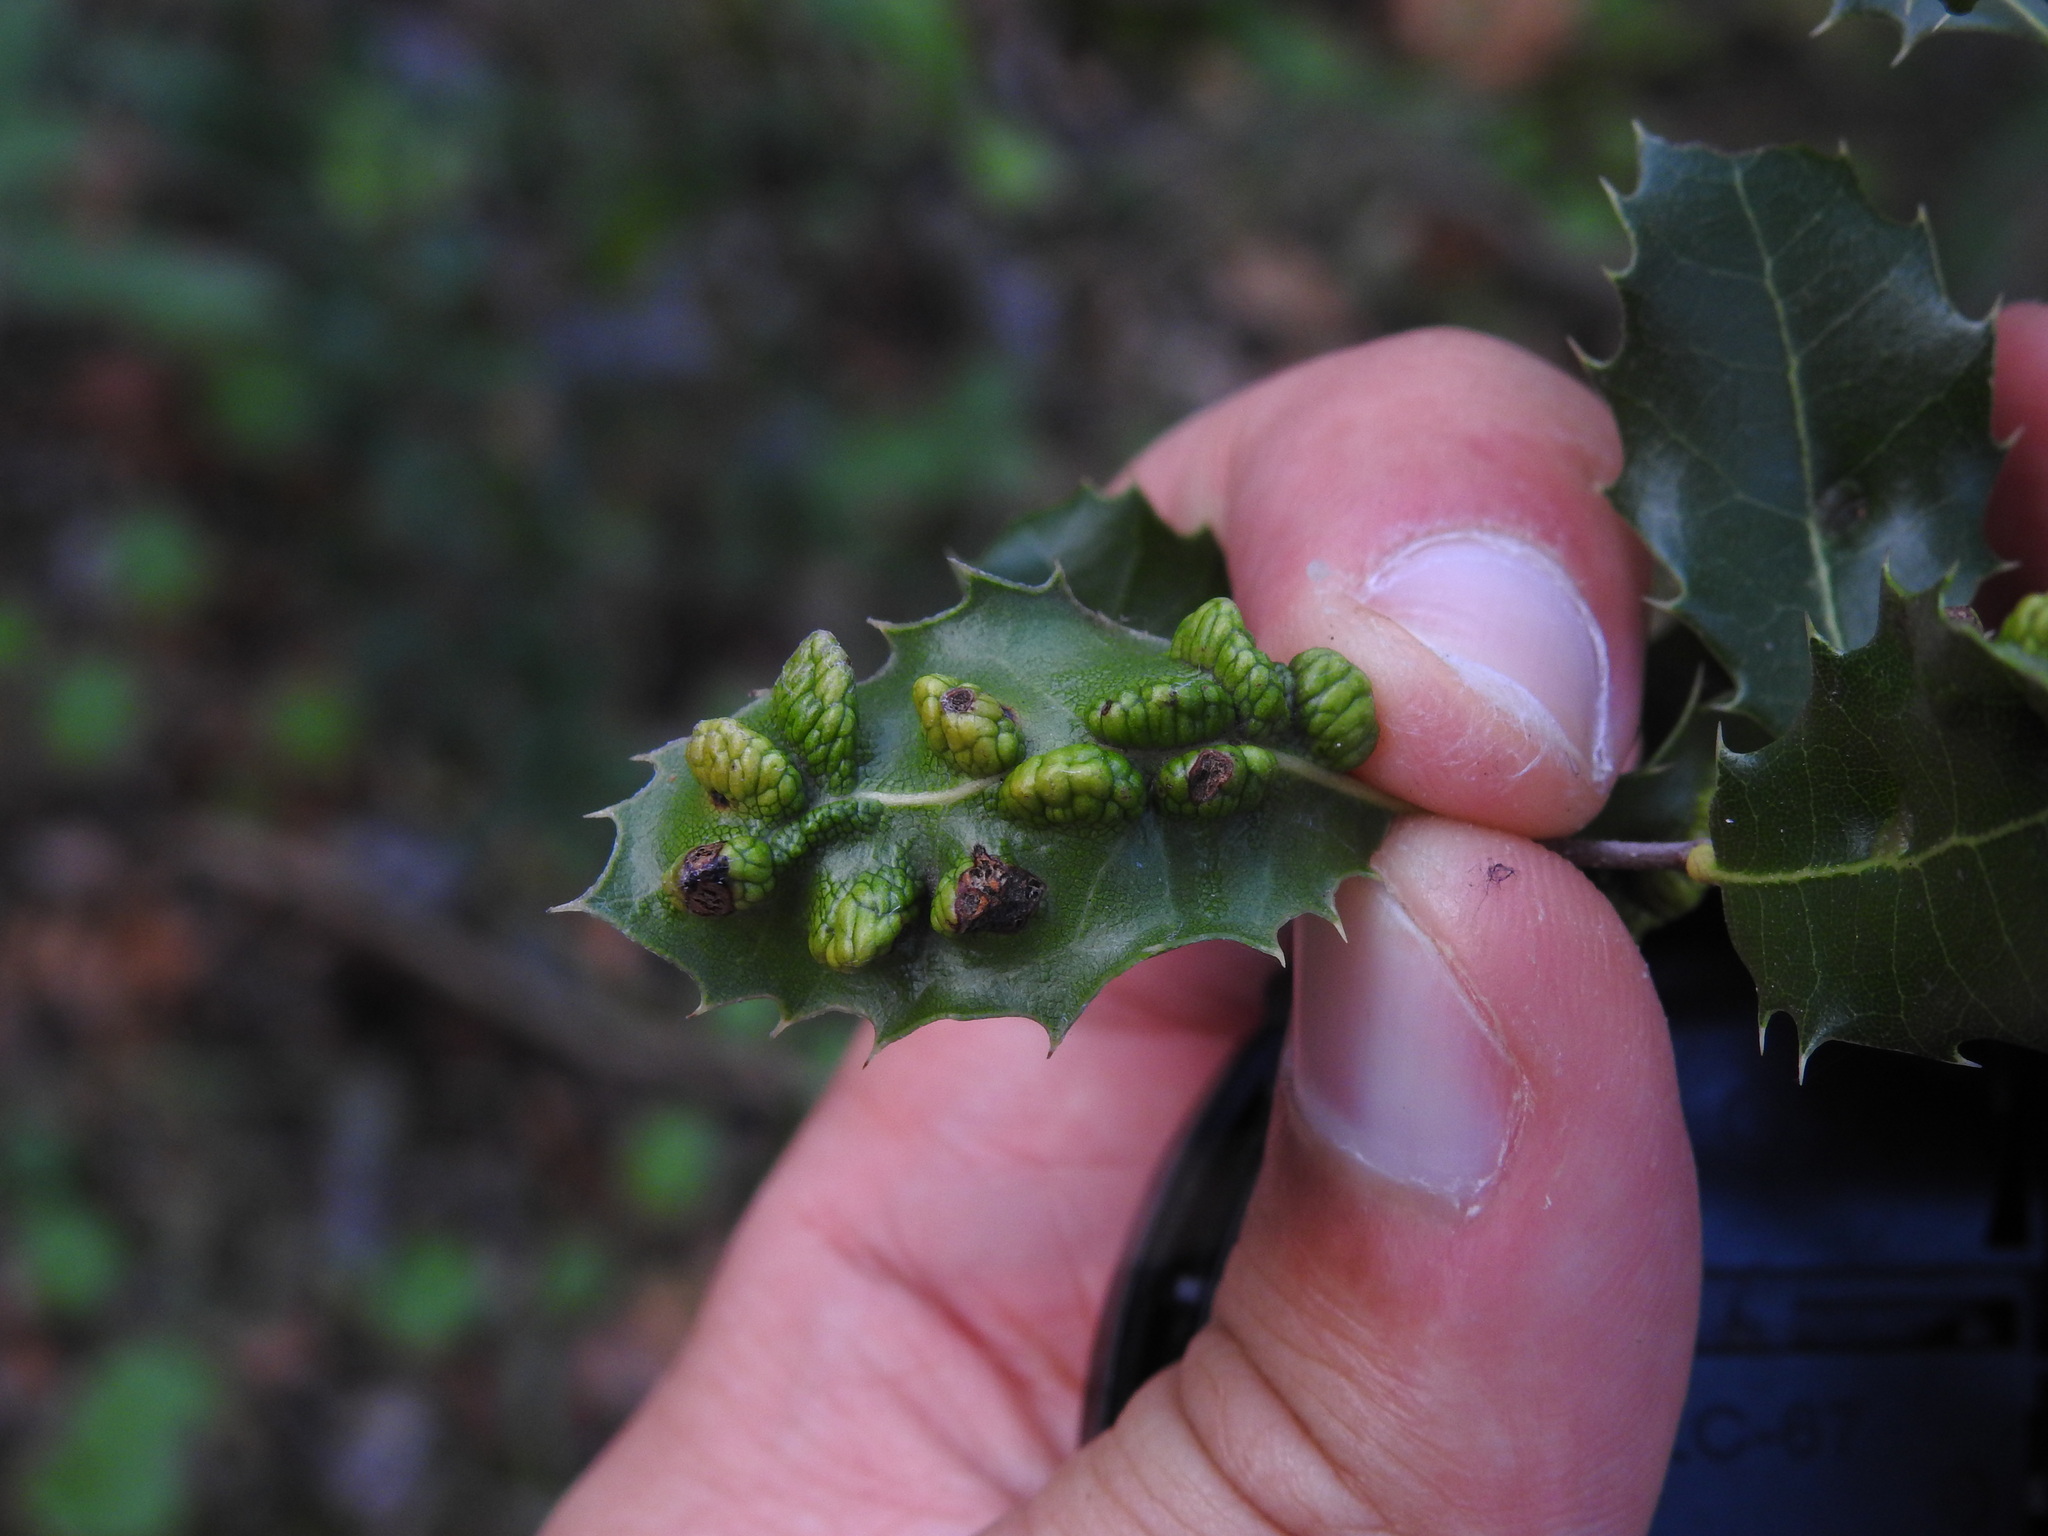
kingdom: Animalia
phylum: Arthropoda
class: Insecta
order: Diptera
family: Cecidomyiidae
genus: Dryomyia
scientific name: Dryomyia cocciferae
